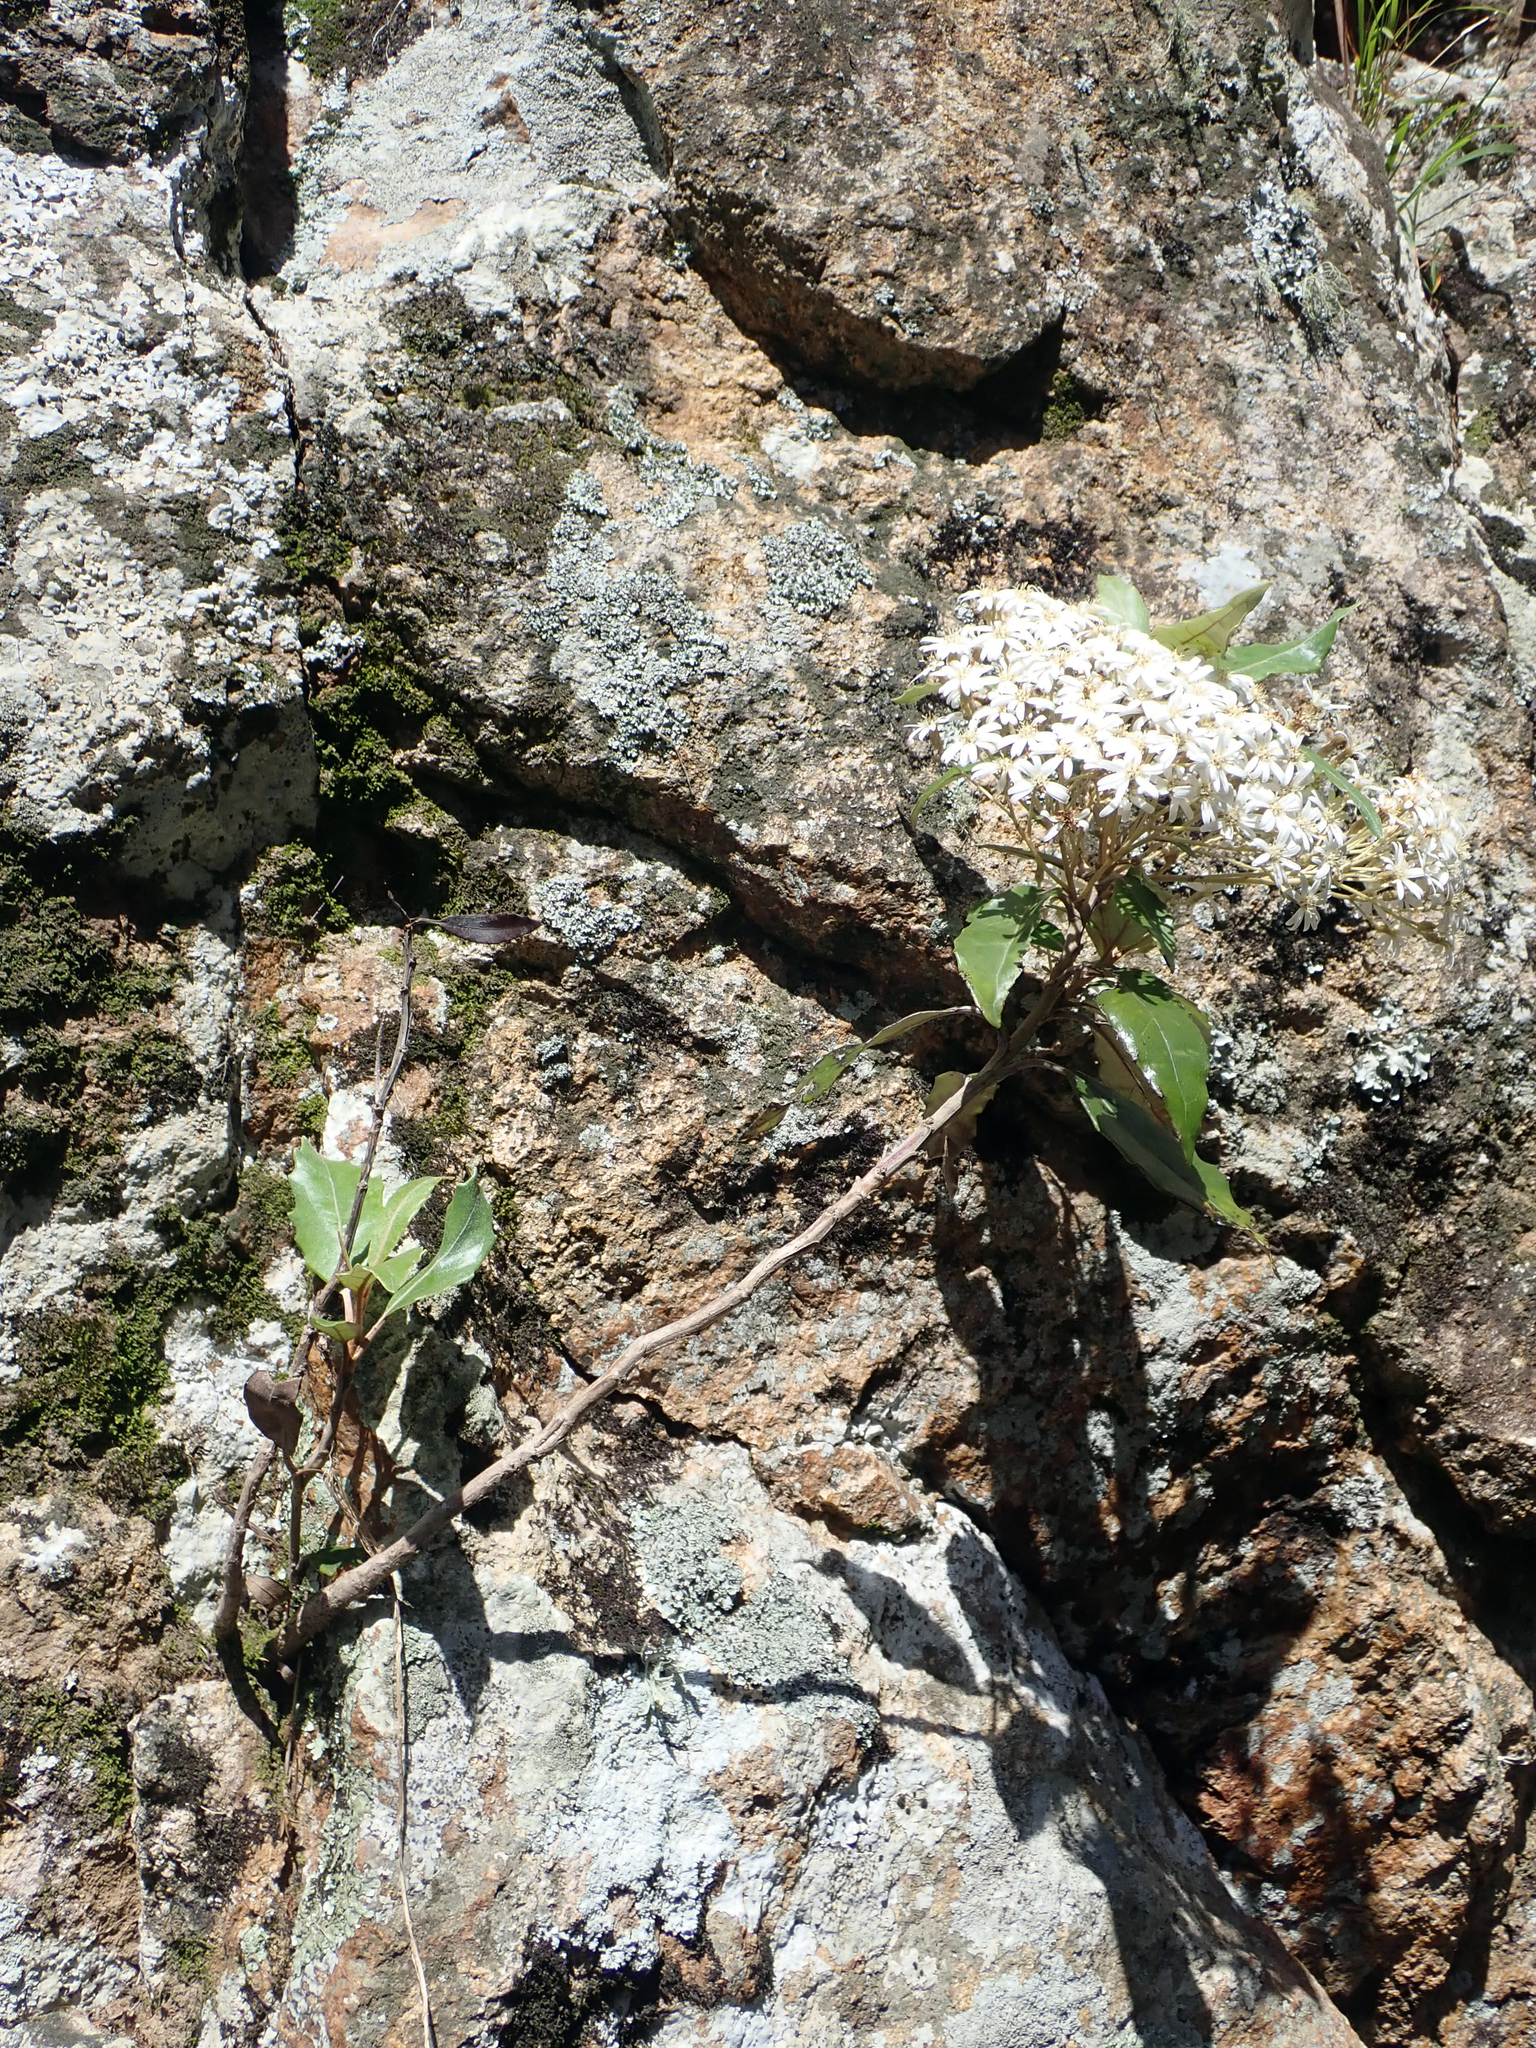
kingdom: Plantae
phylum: Tracheophyta
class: Magnoliopsida
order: Asterales
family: Asteraceae
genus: Olearia
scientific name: Olearia cheesemanii
